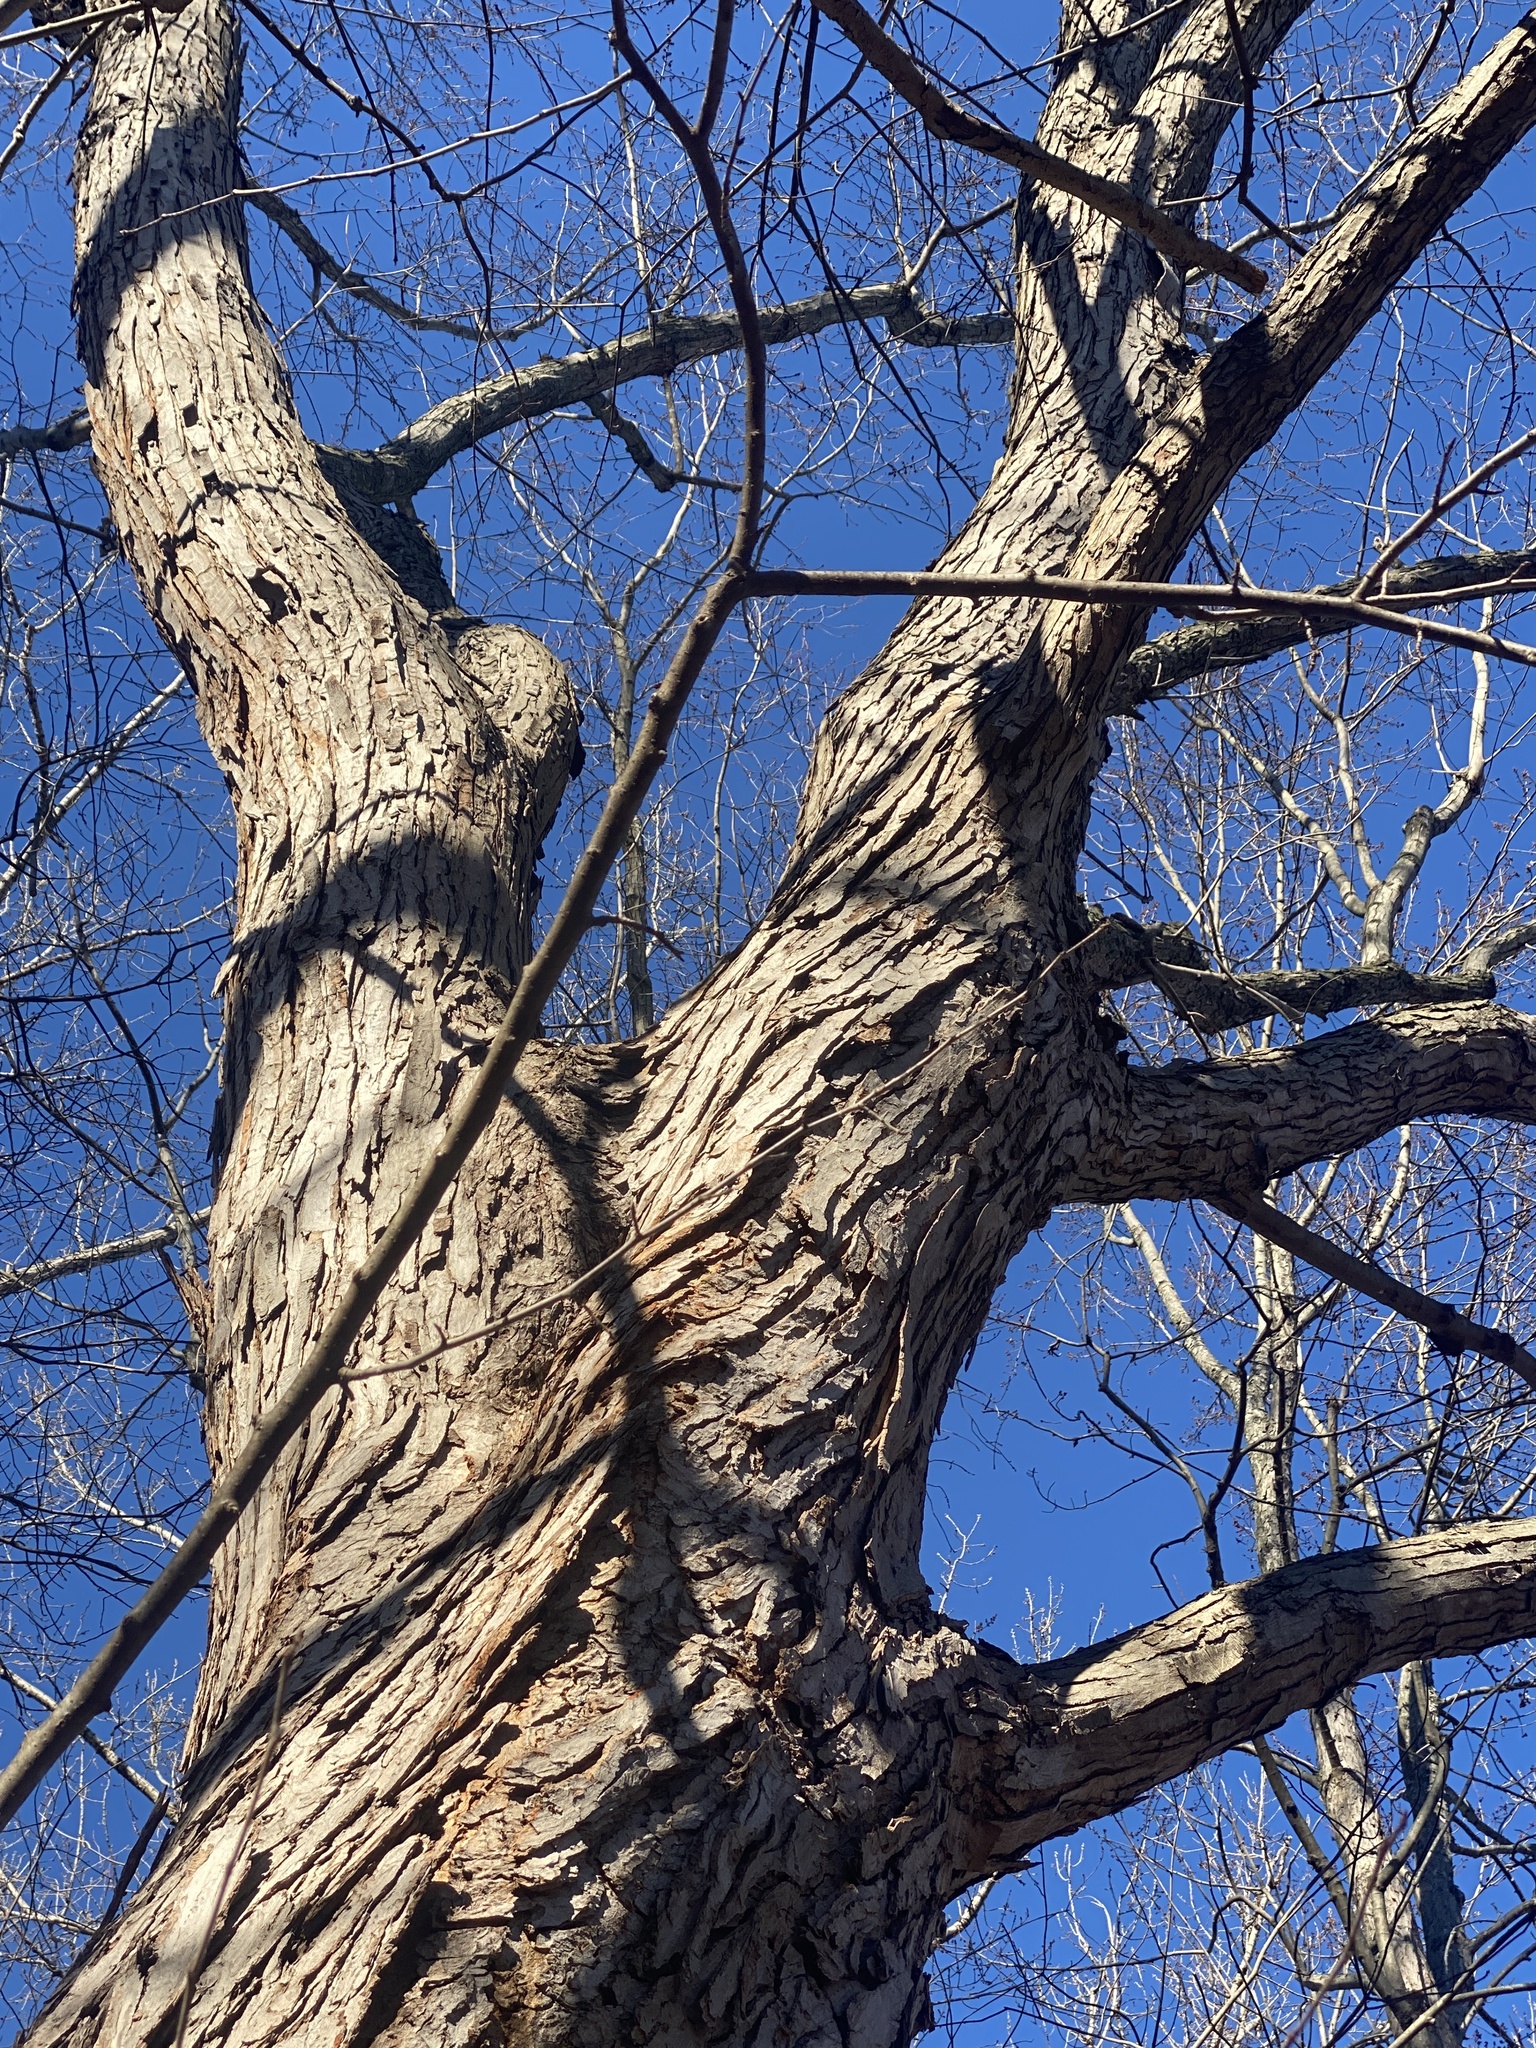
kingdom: Plantae
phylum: Tracheophyta
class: Magnoliopsida
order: Sapindales
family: Sapindaceae
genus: Acer
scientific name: Acer saccharinum
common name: Silver maple
